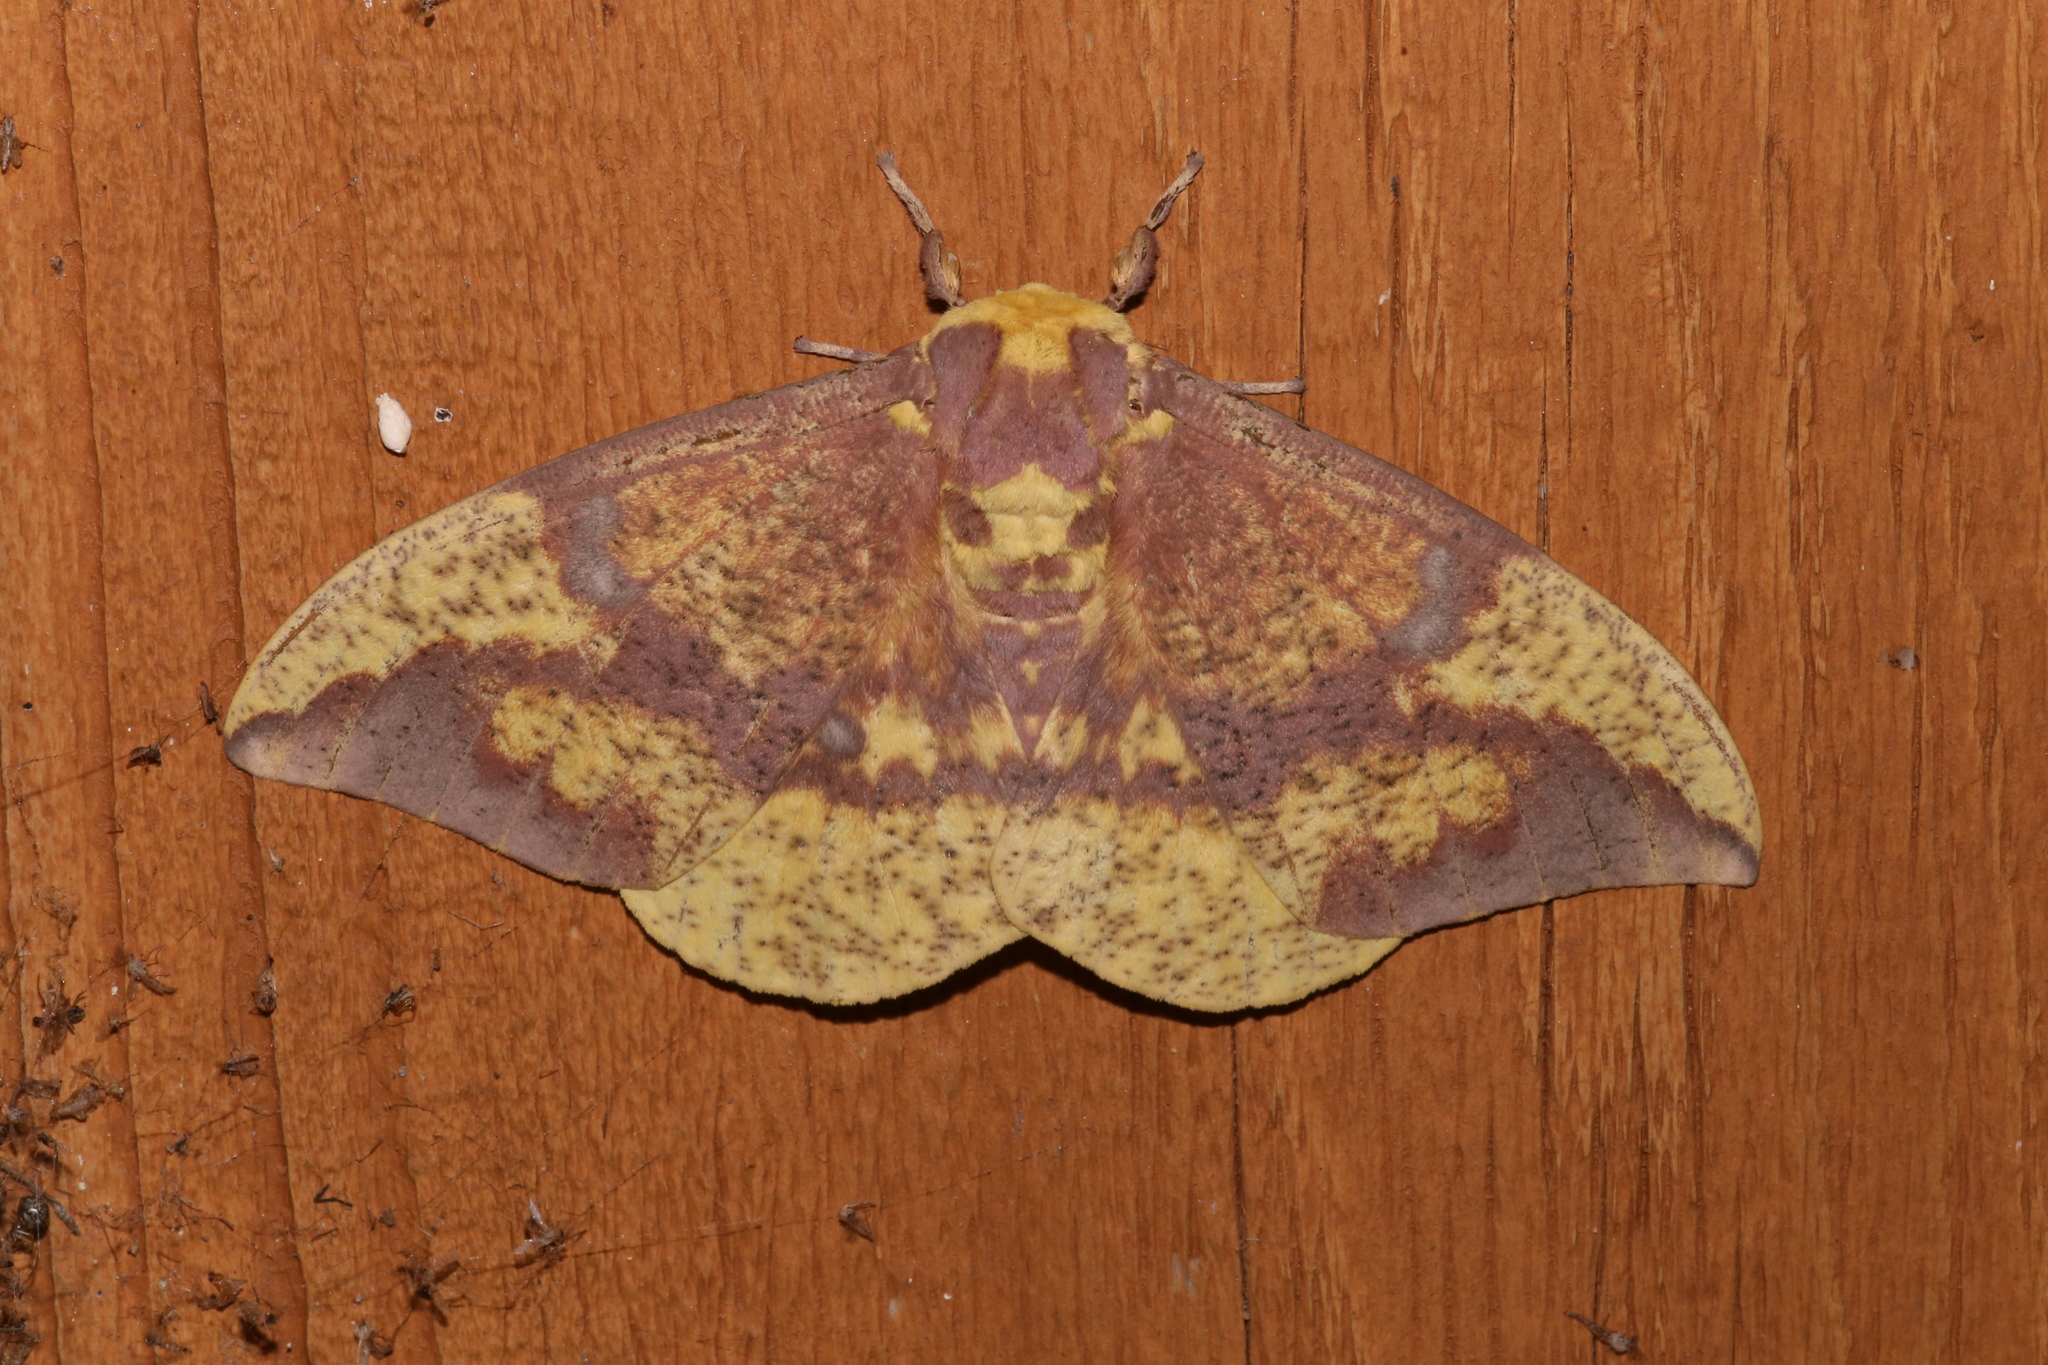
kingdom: Animalia
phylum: Arthropoda
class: Insecta
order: Lepidoptera
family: Saturniidae
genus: Eacles
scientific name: Eacles imperialis
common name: Imperial moth
